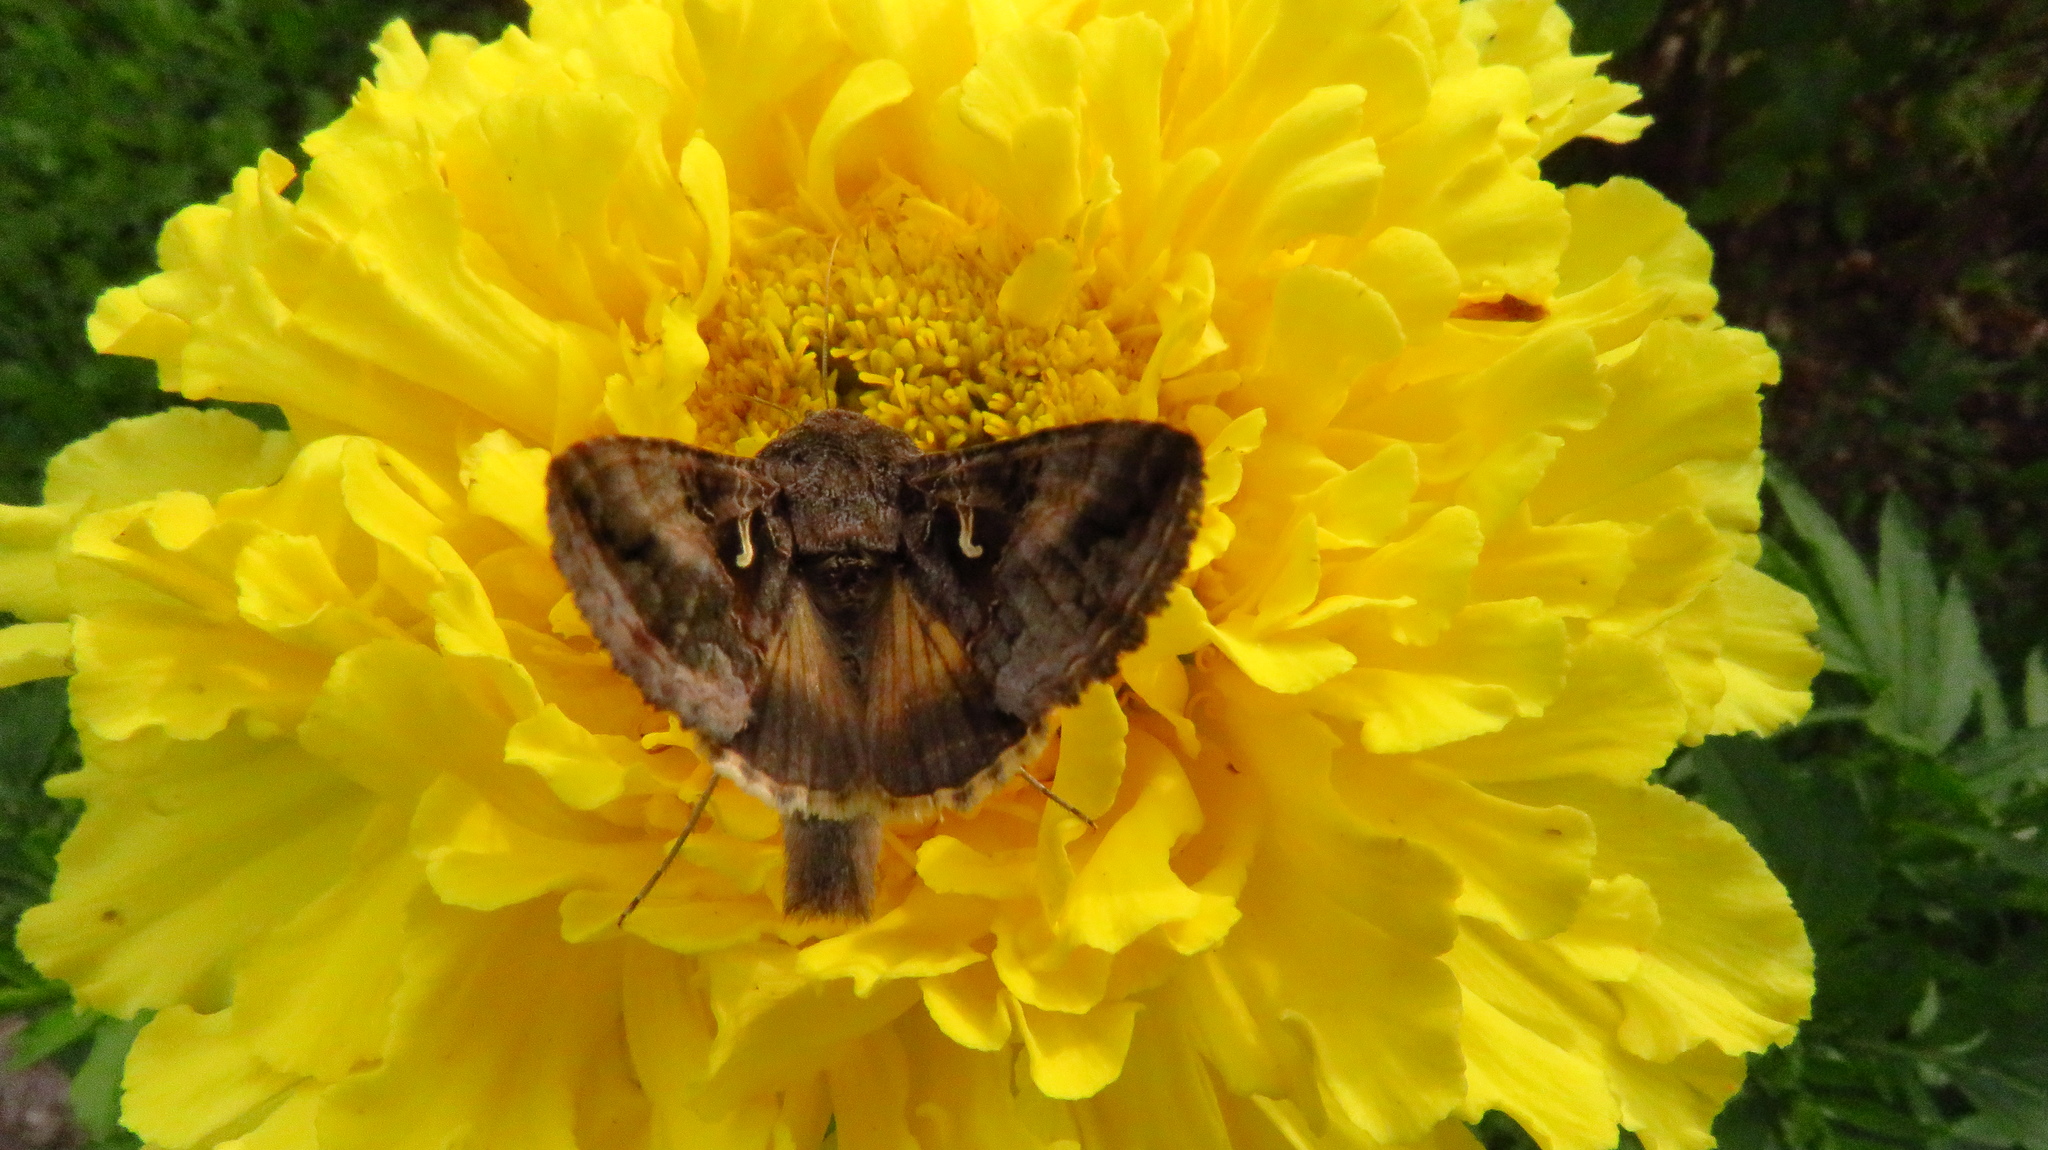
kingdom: Animalia
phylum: Arthropoda
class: Insecta
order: Lepidoptera
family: Noctuidae
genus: Autographa
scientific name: Autographa gamma
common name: Silver y
